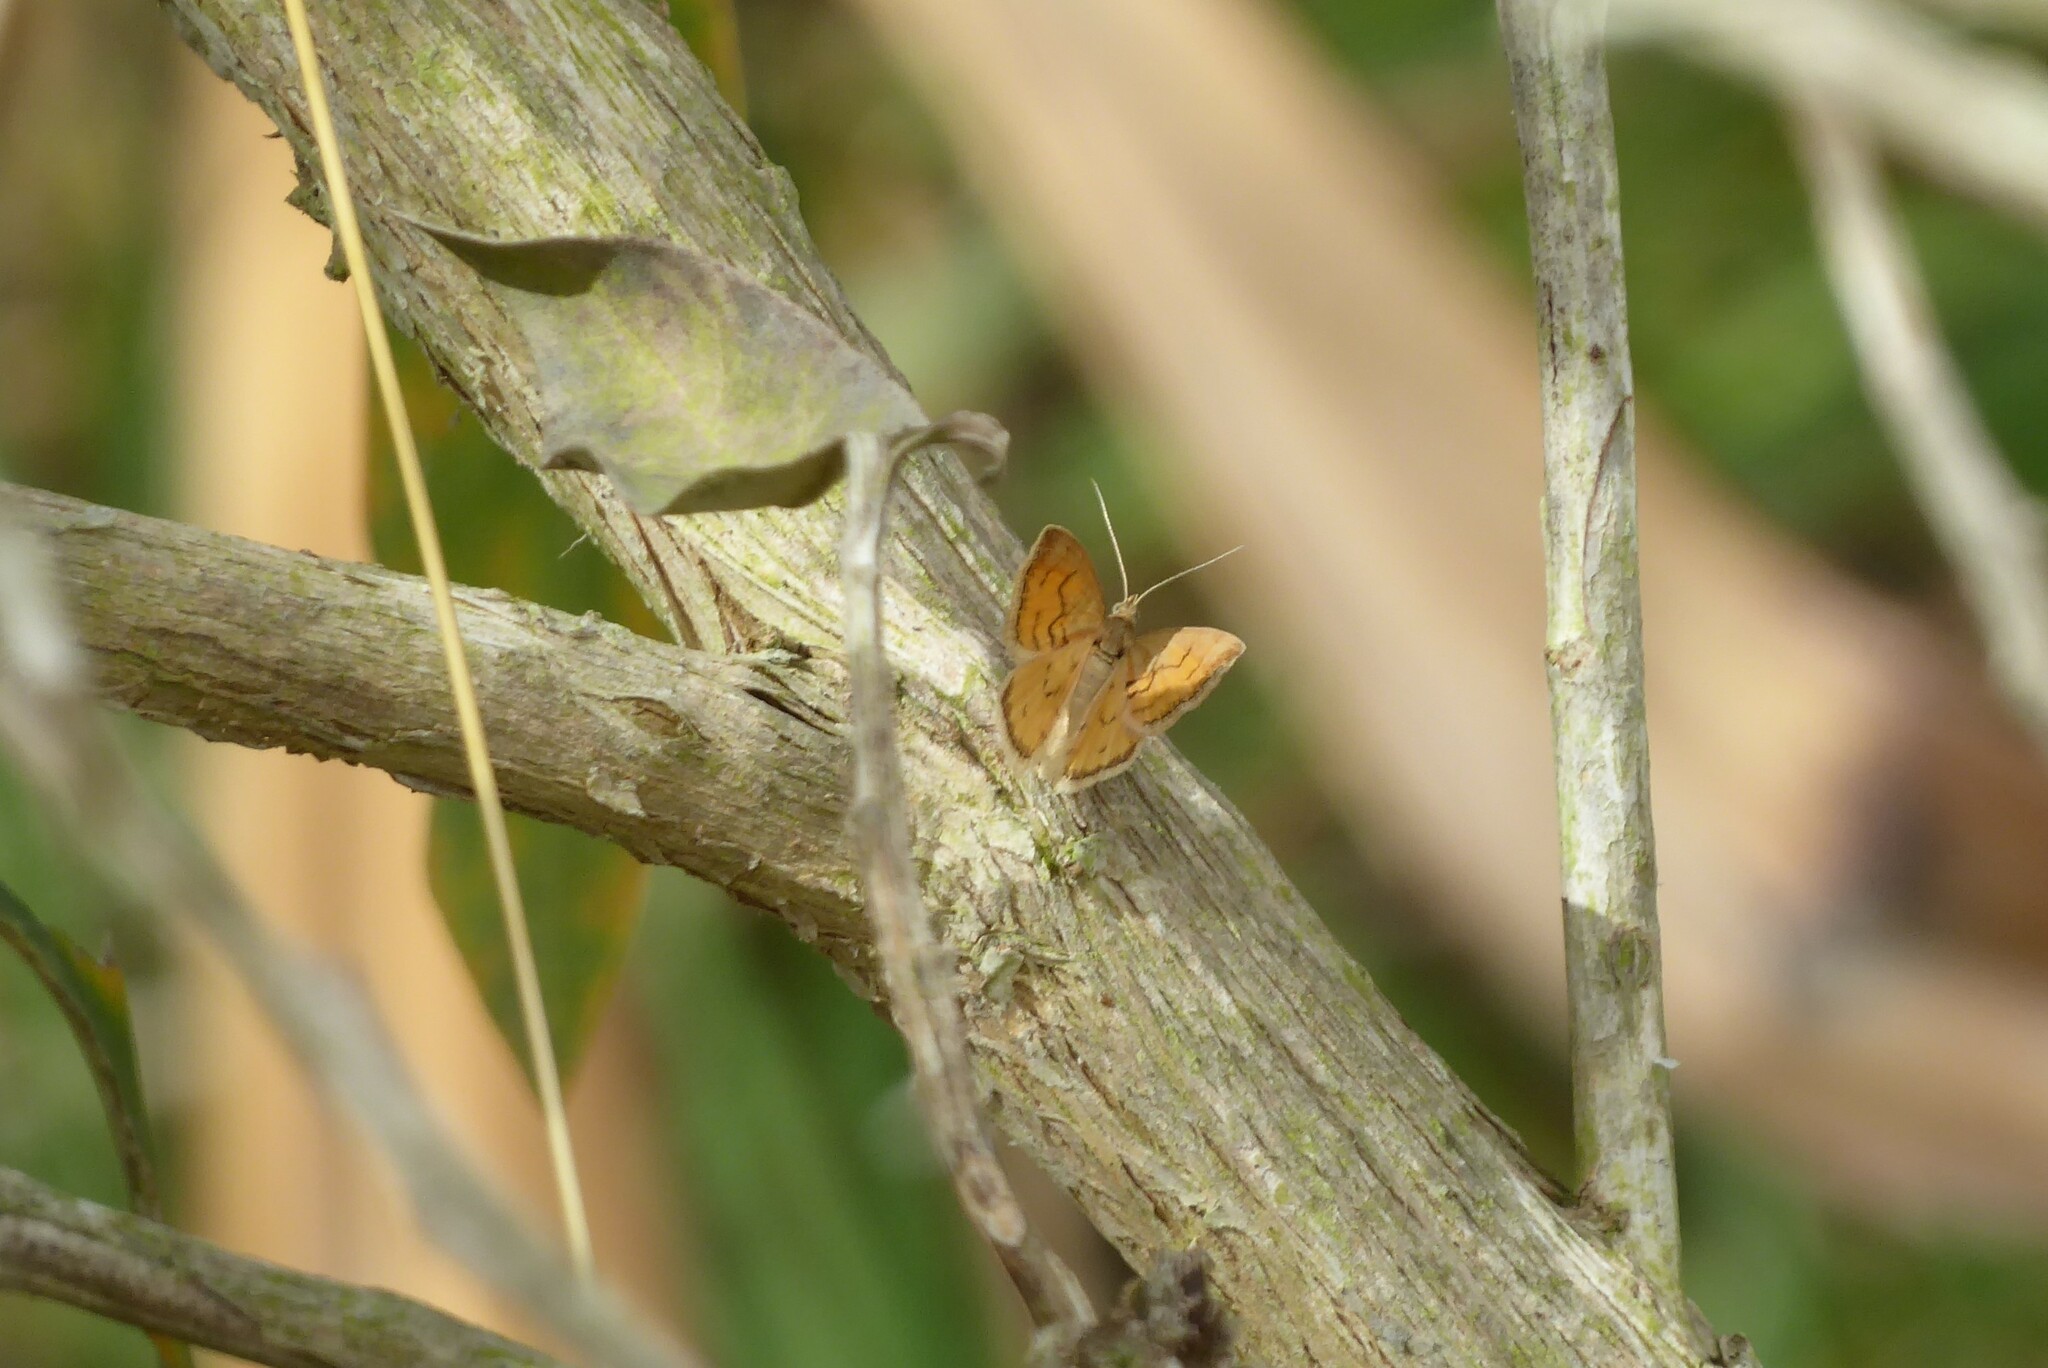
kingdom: Animalia
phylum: Arthropoda
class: Insecta
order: Lepidoptera
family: Geometridae
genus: Asaphodes
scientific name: Asaphodes abrogata
